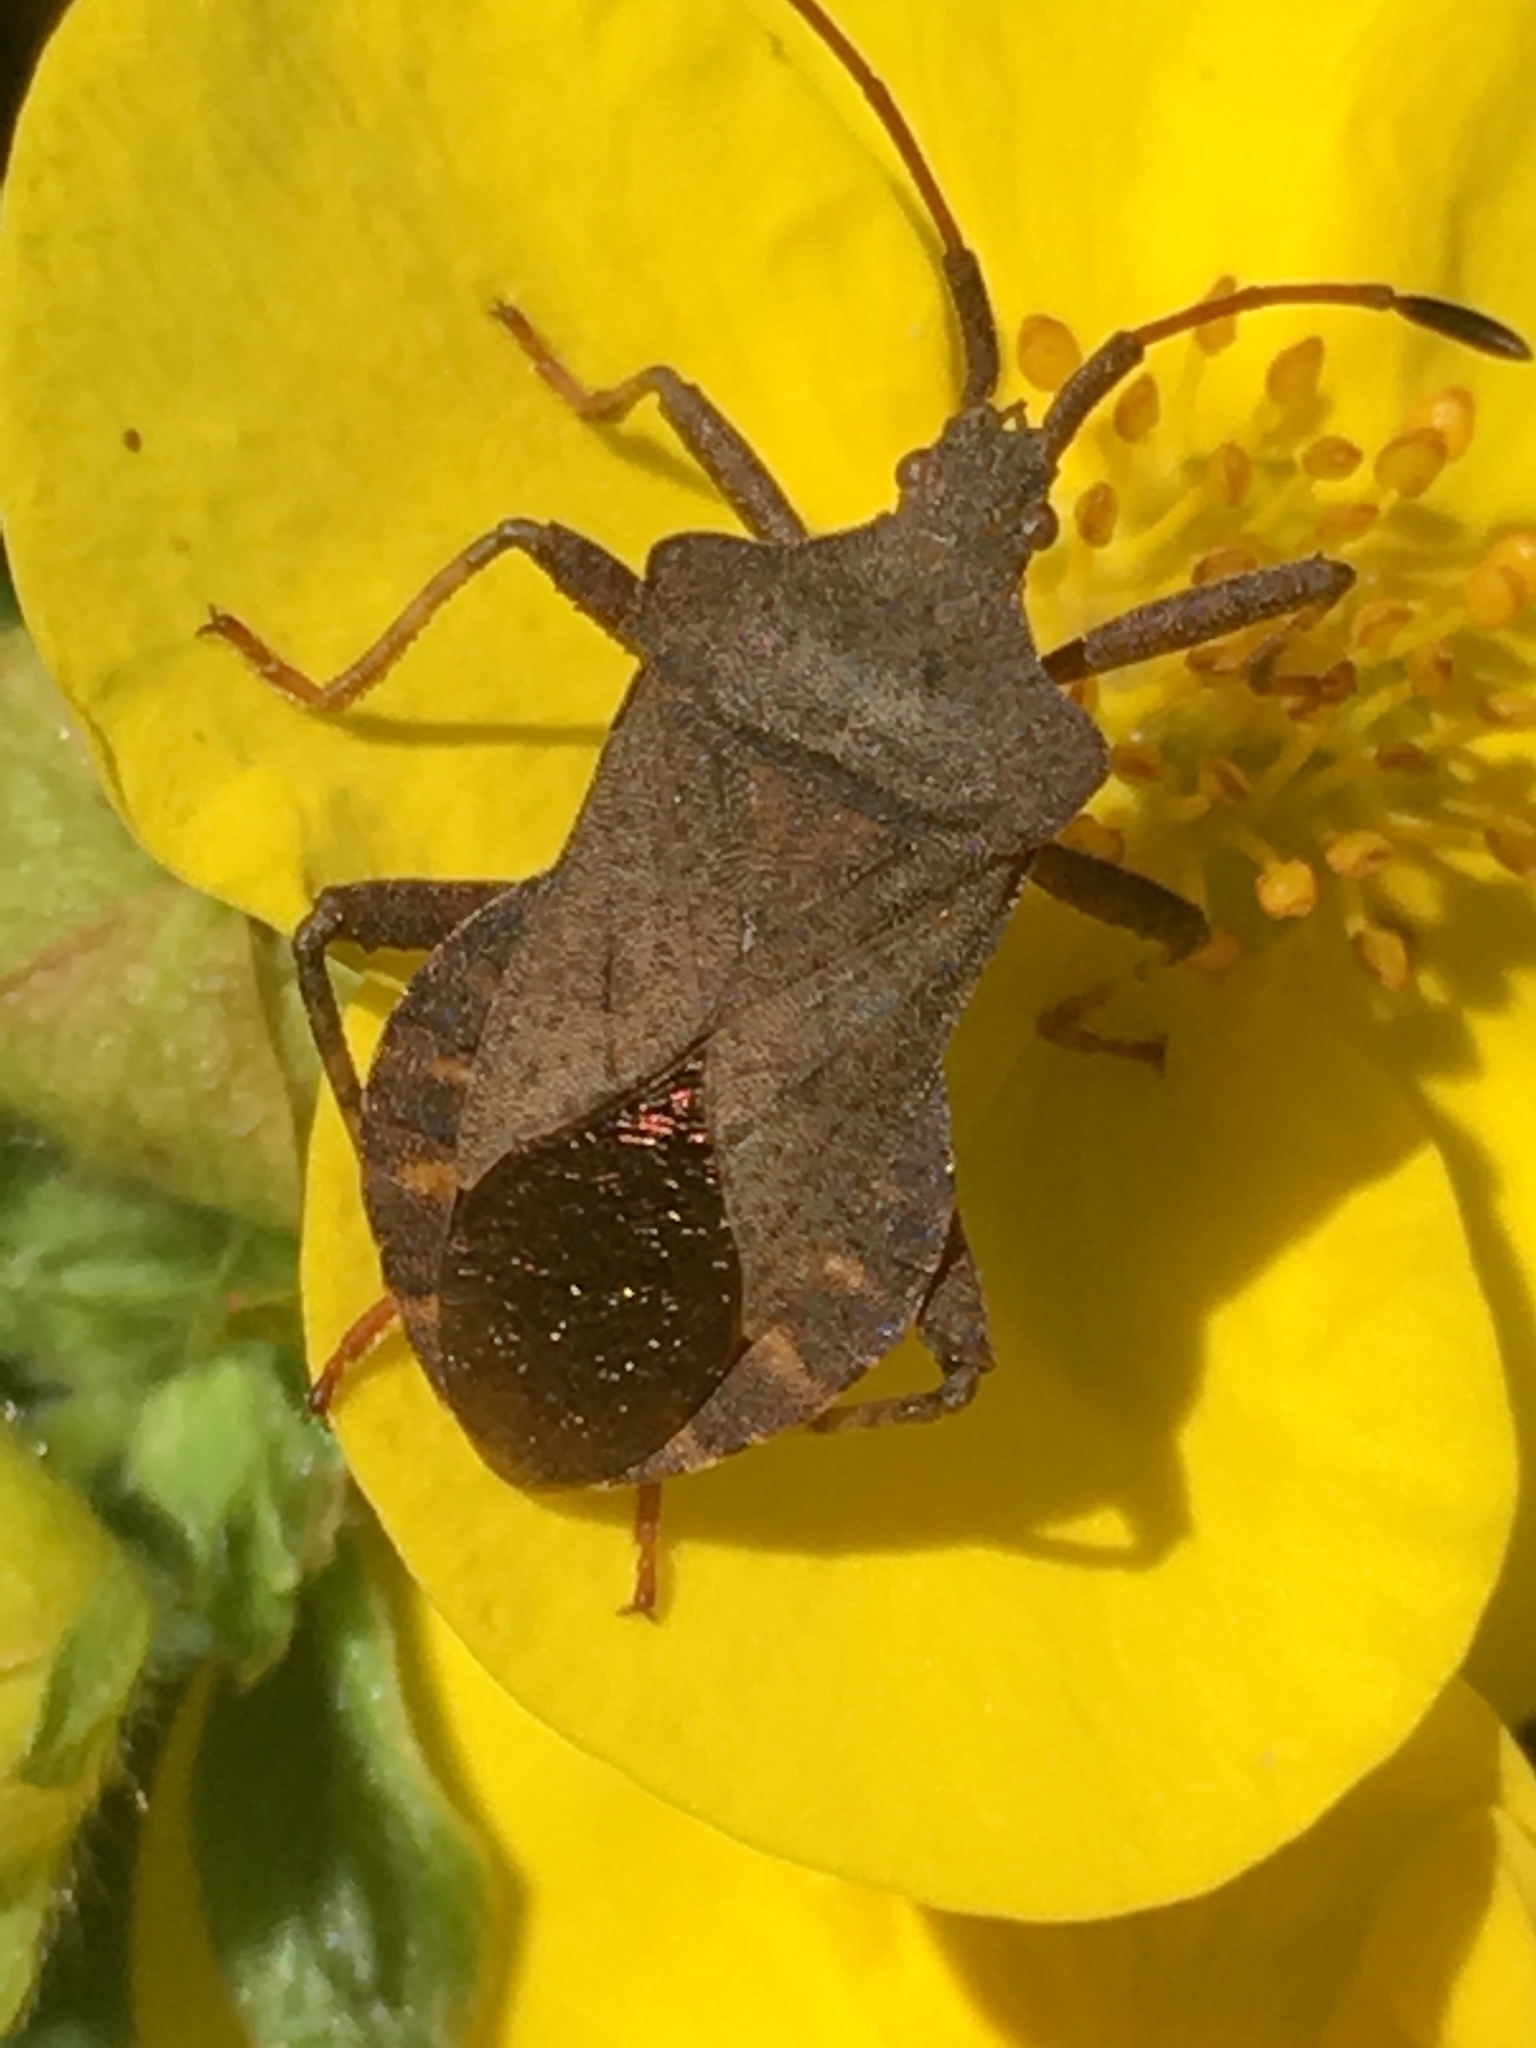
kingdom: Animalia
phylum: Arthropoda
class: Insecta
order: Hemiptera
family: Coreidae
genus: Coreus
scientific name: Coreus marginatus
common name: Dock bug
